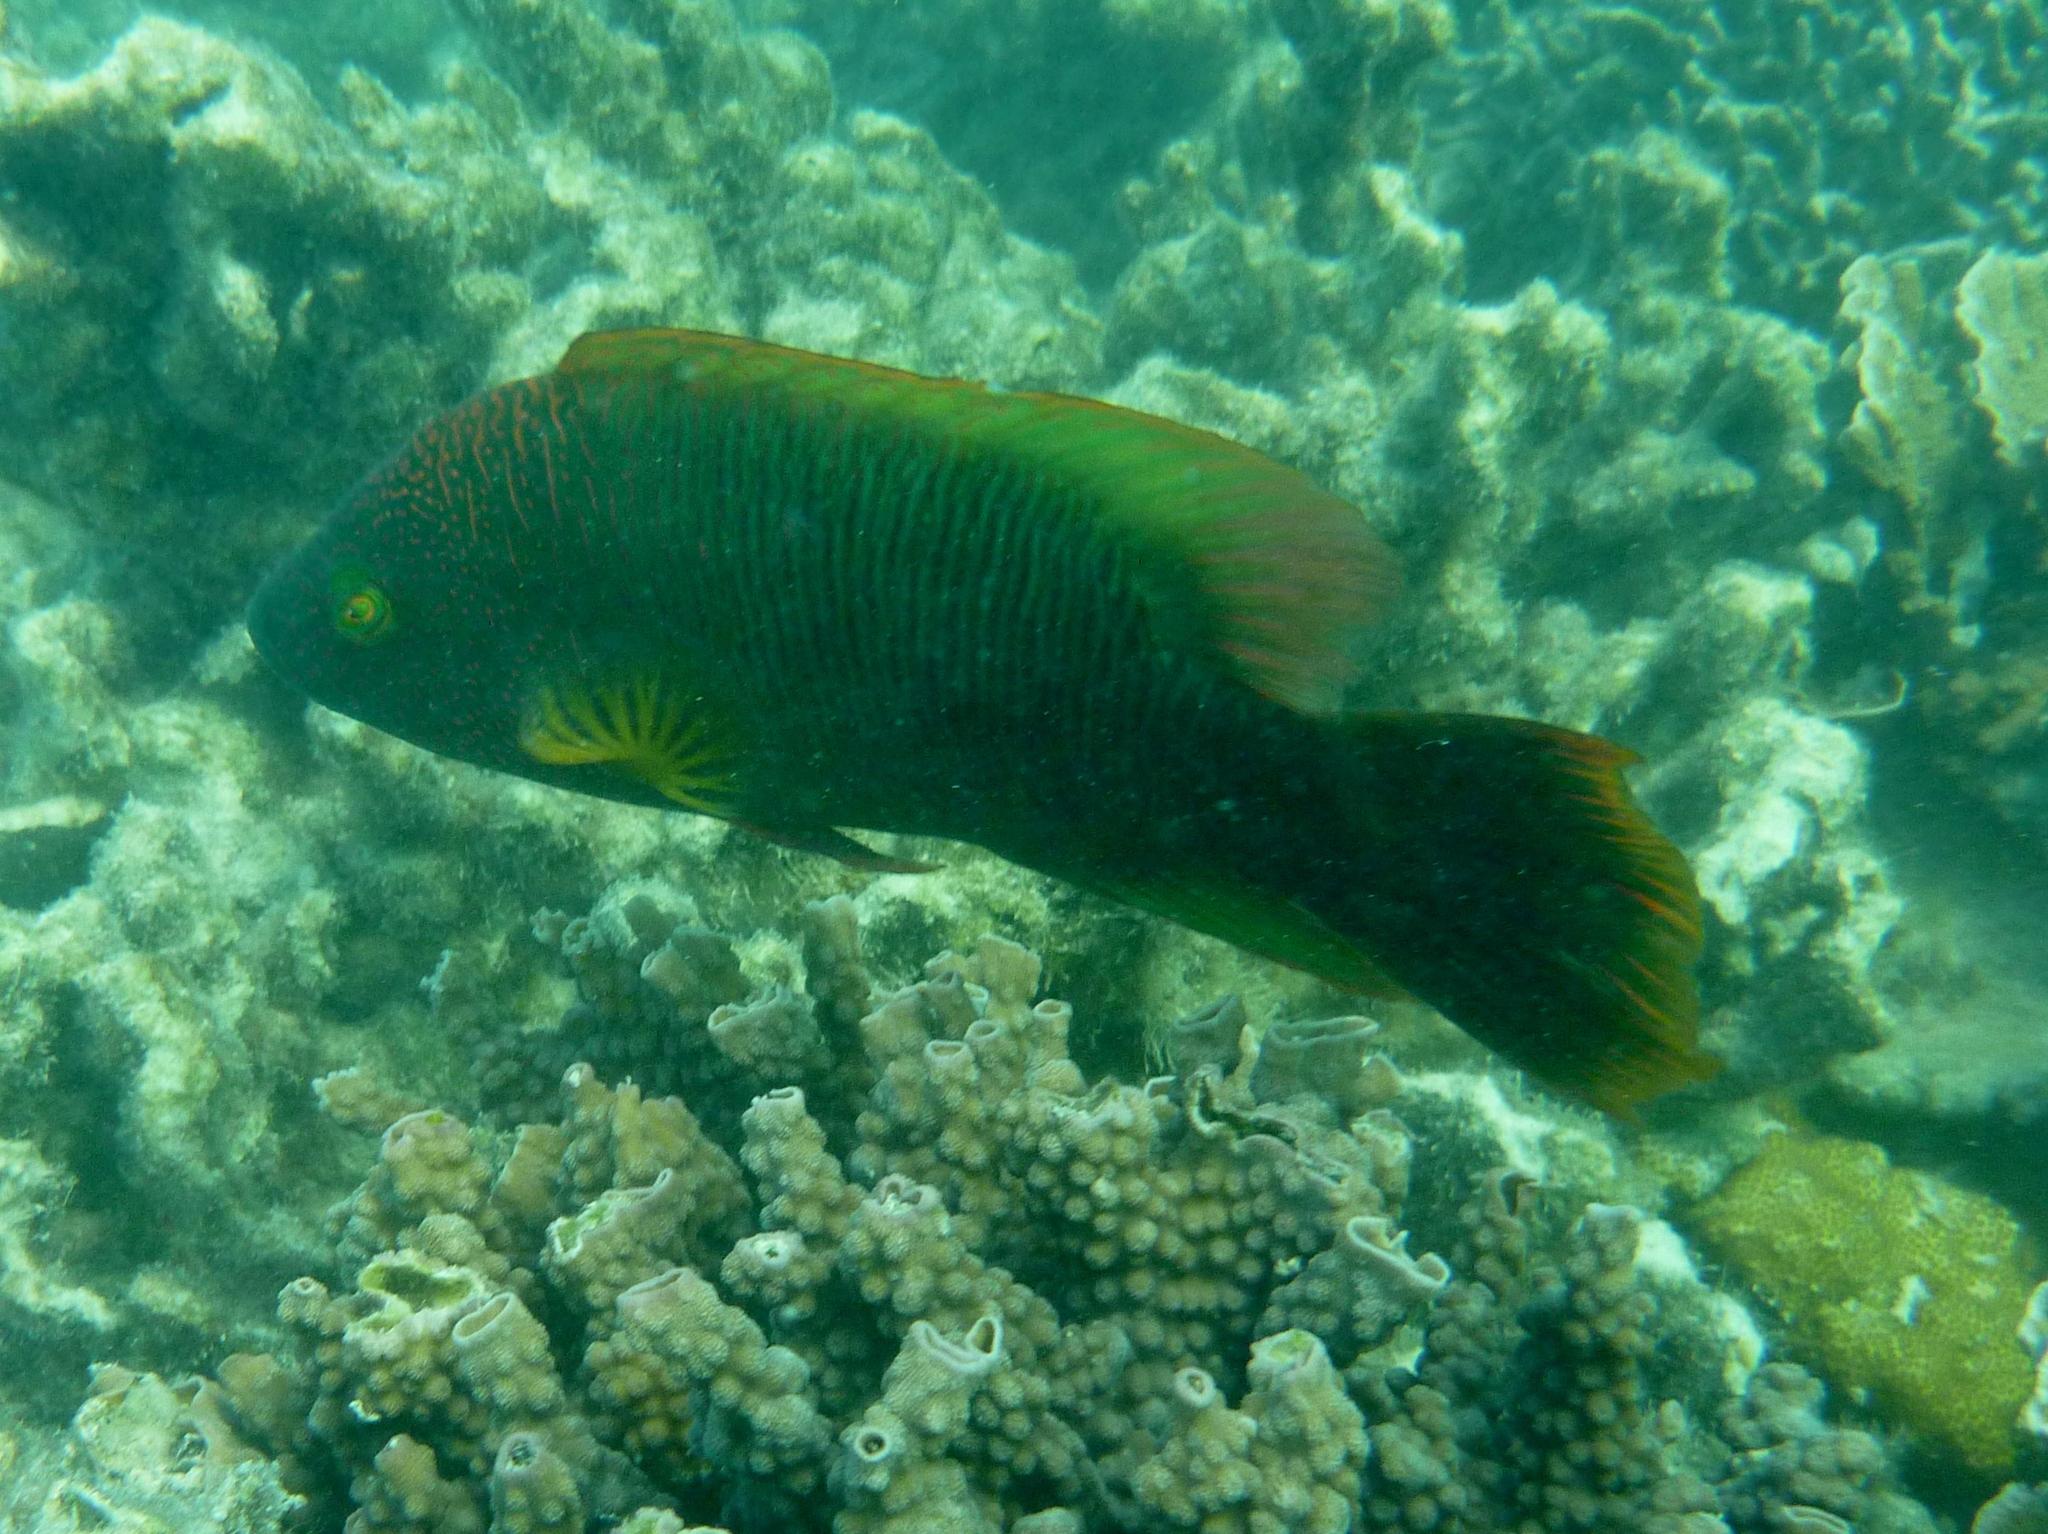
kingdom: Animalia
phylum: Chordata
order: Perciformes
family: Labridae
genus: Cheilinus
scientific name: Cheilinus trilobatus
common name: Tripletail maori wrasse
